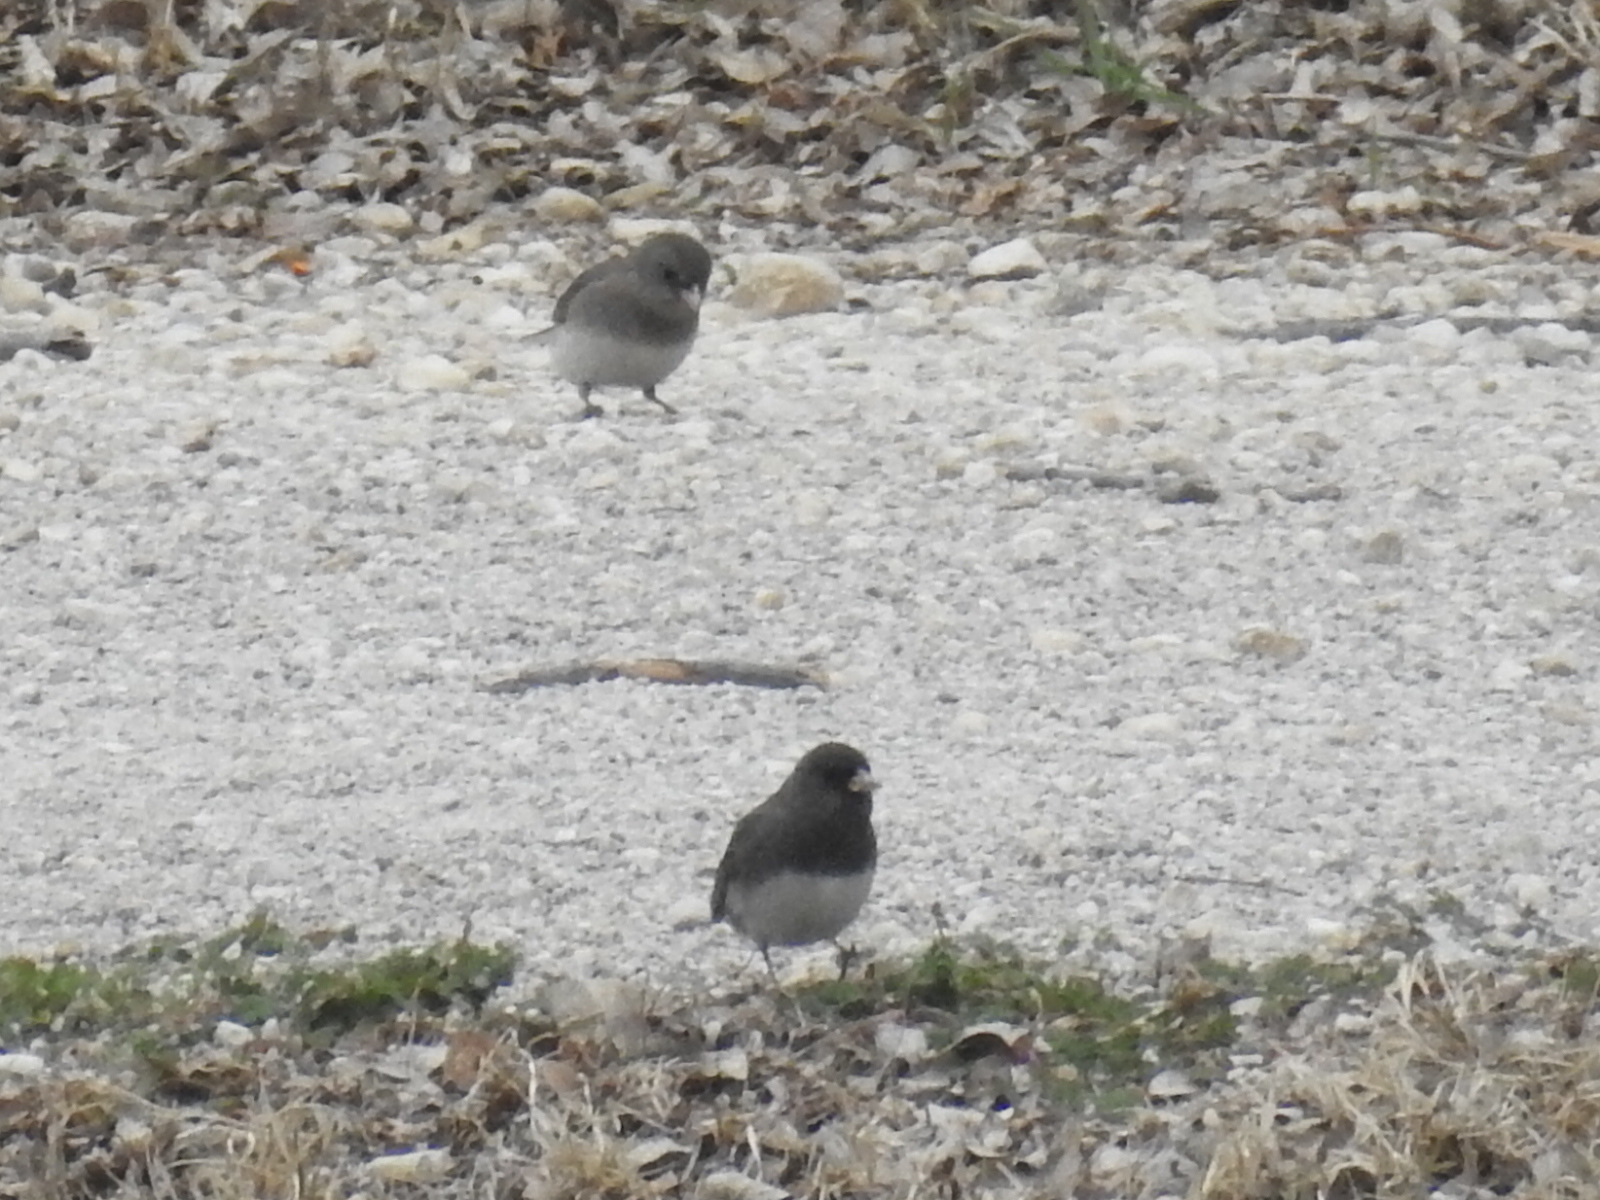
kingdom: Animalia
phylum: Chordata
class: Aves
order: Passeriformes
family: Passerellidae
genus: Junco
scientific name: Junco hyemalis
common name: Dark-eyed junco
